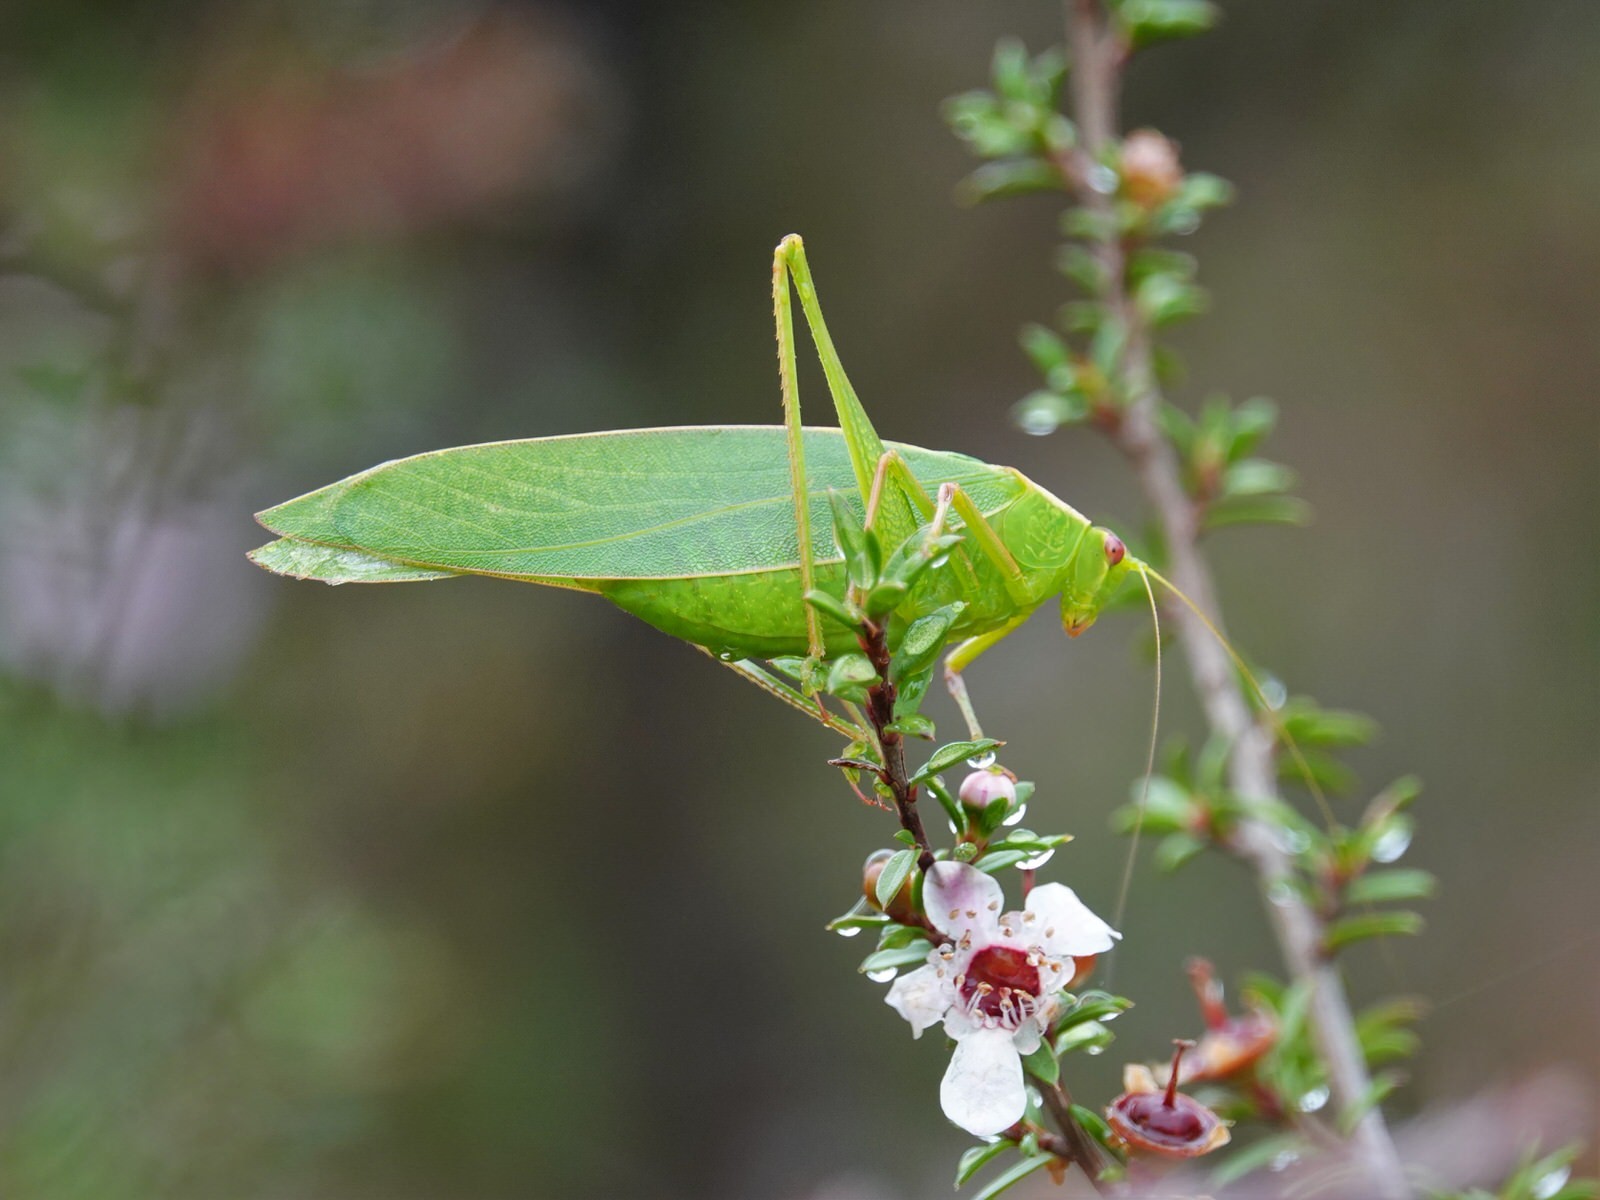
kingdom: Animalia
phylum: Arthropoda
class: Insecta
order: Orthoptera
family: Tettigoniidae
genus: Caedicia
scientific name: Caedicia simplex
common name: Common garden katydid
